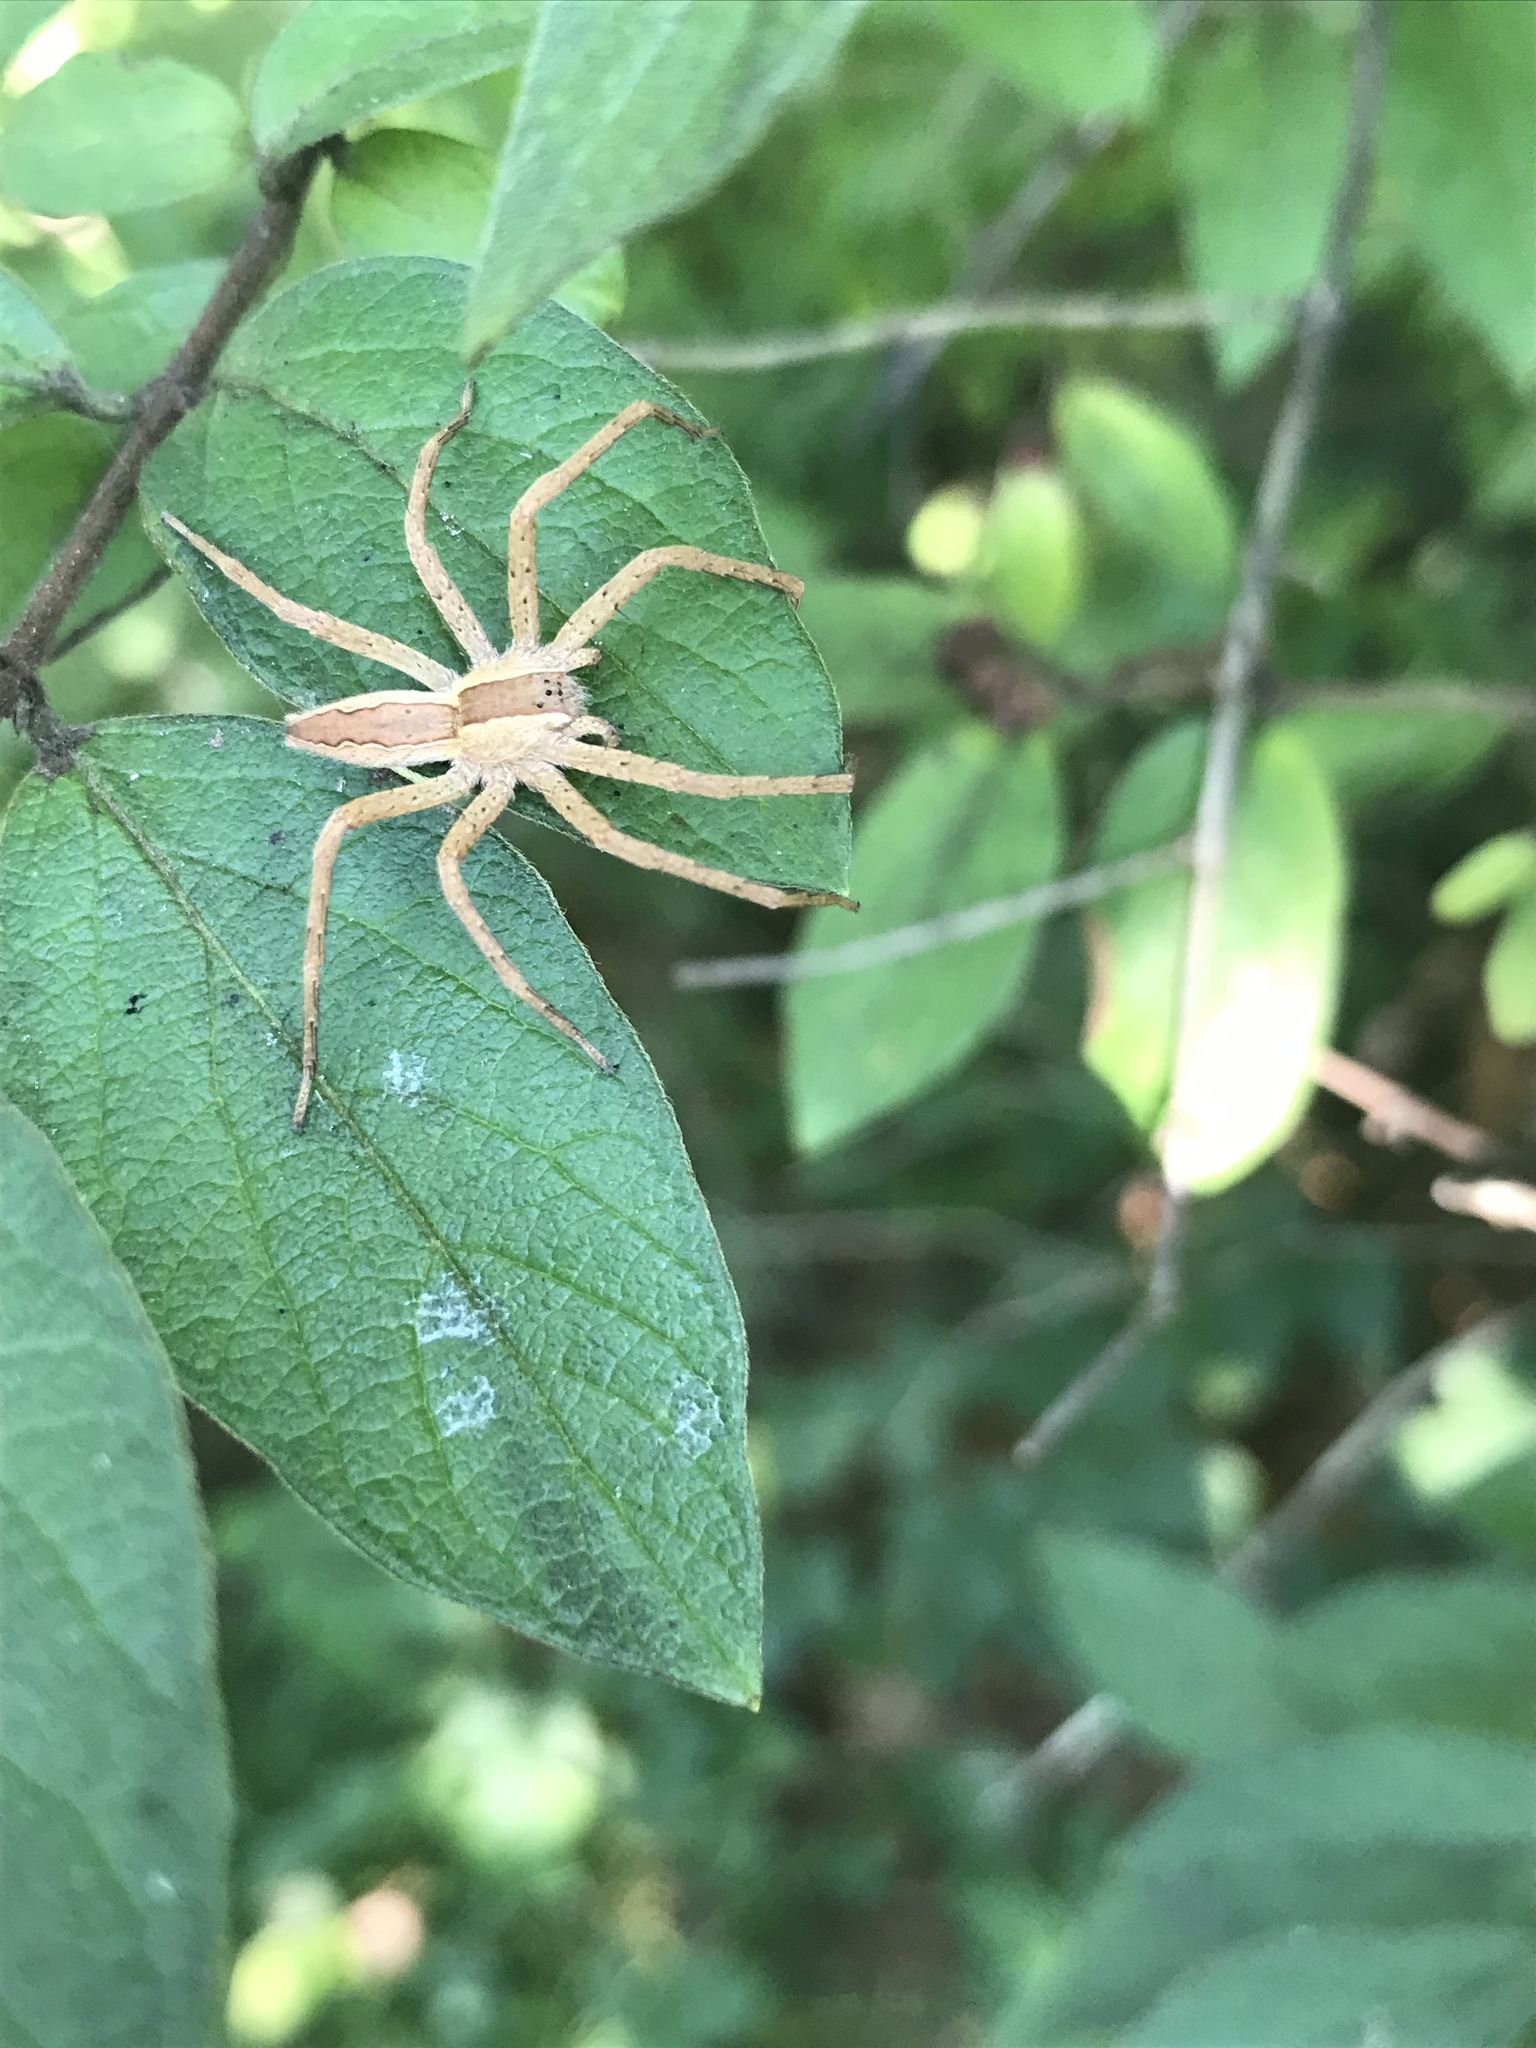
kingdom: Animalia
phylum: Arthropoda
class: Arachnida
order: Araneae
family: Pisauridae
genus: Pisaurina
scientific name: Pisaurina mira
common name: American nursery web spider
